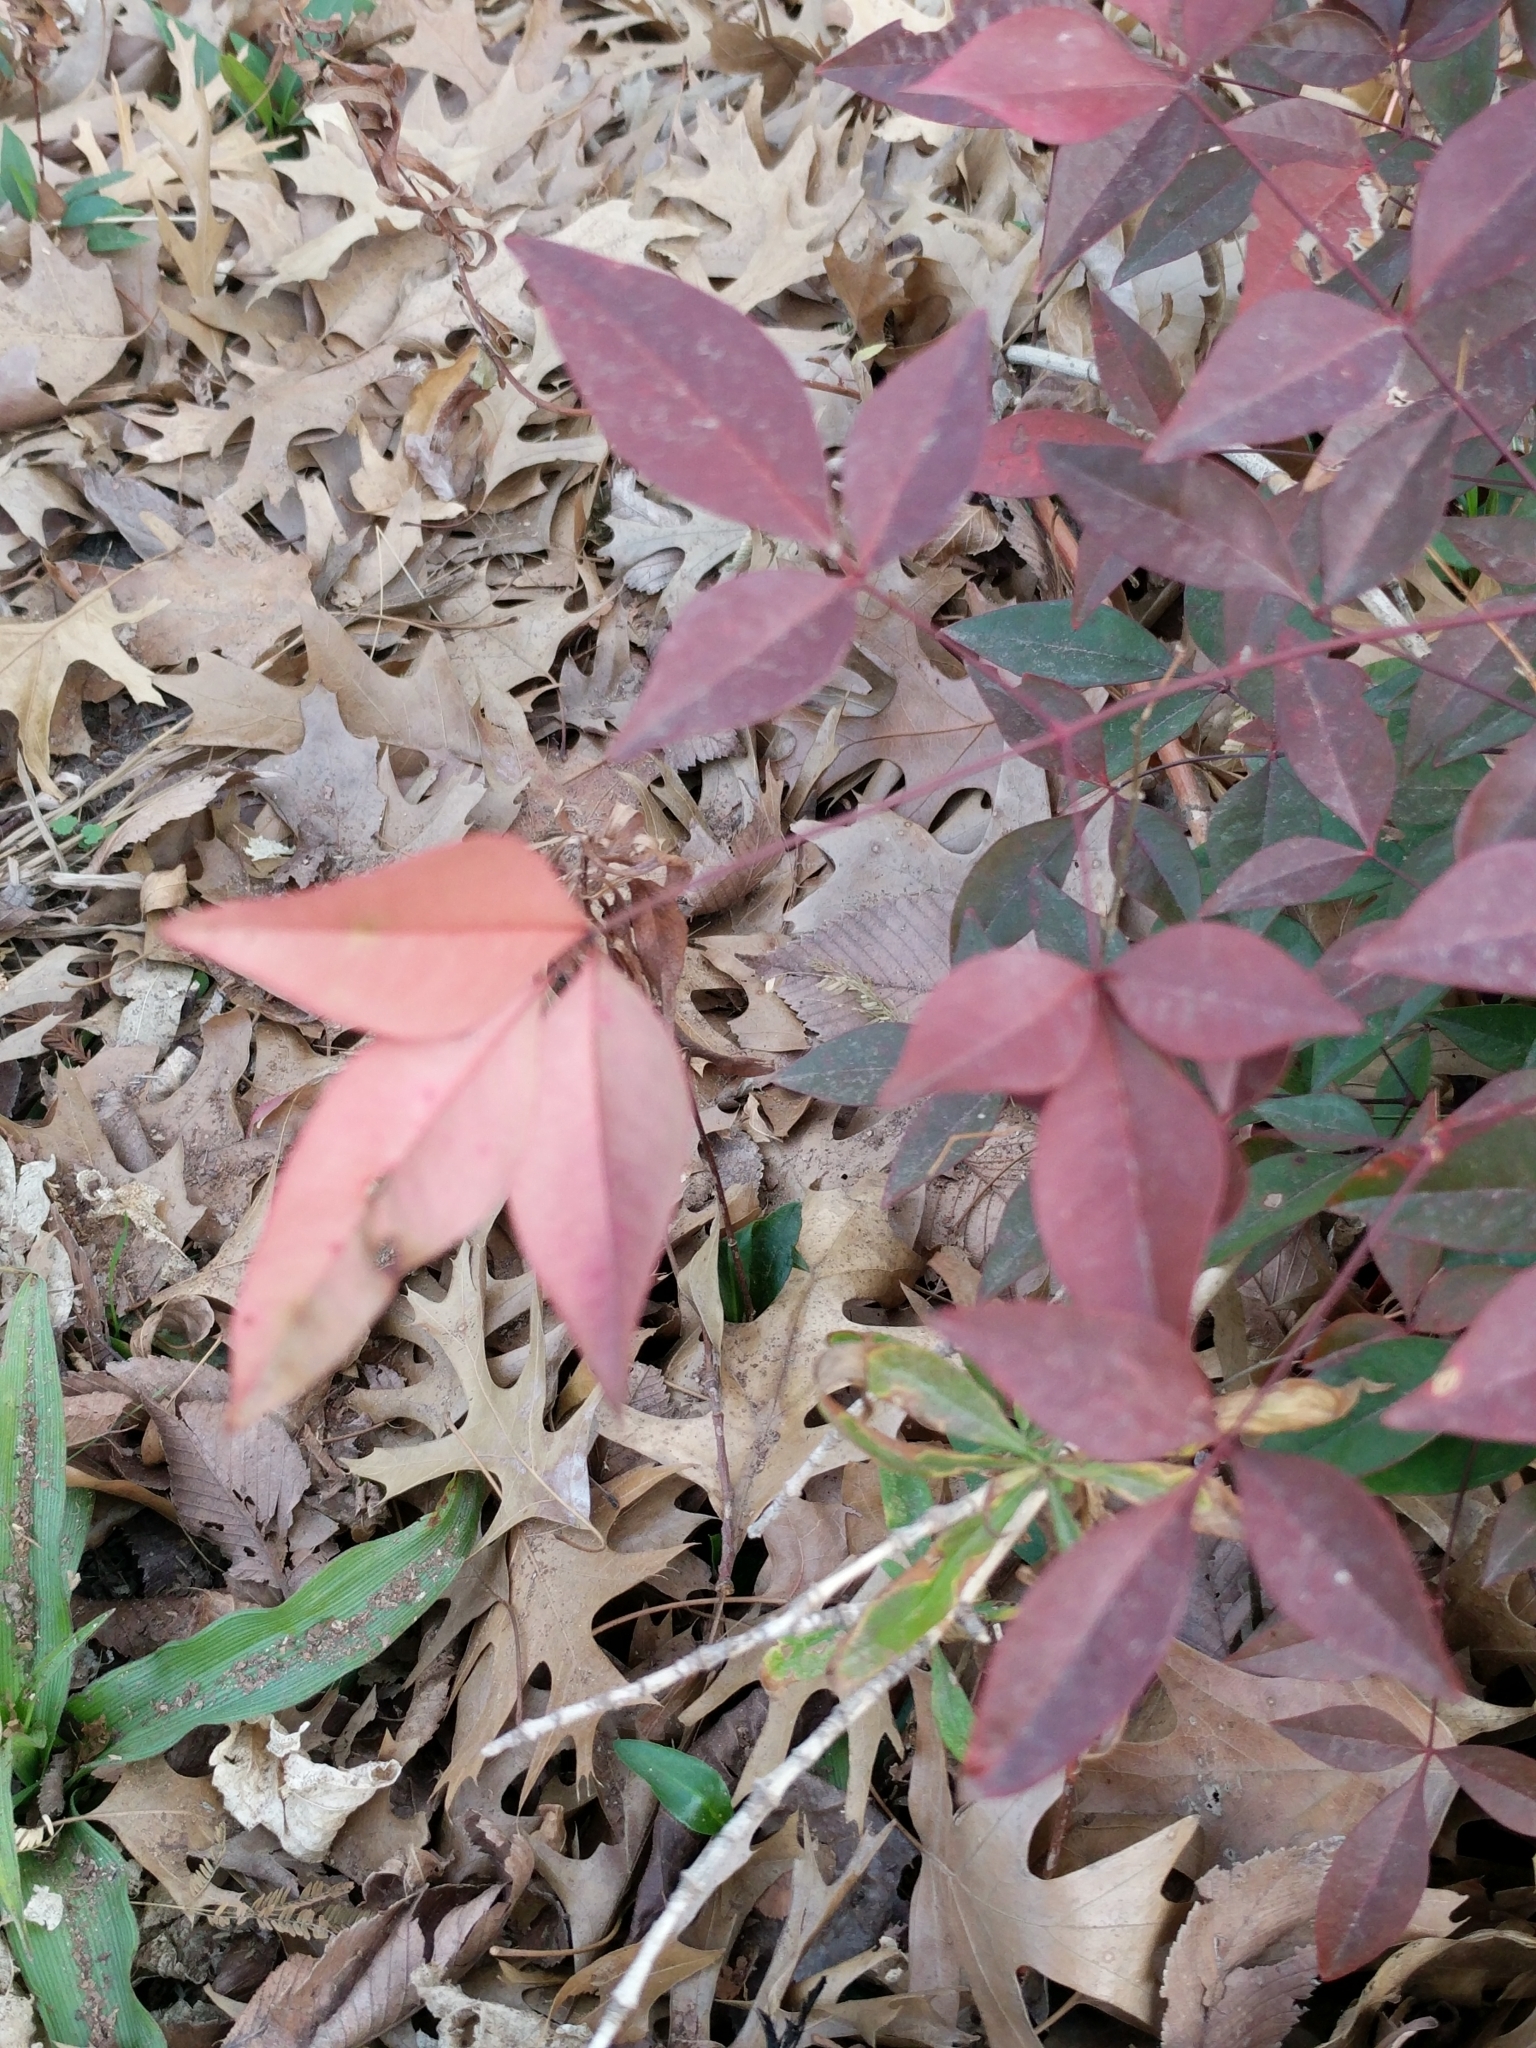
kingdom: Plantae
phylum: Tracheophyta
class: Magnoliopsida
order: Ranunculales
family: Berberidaceae
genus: Nandina
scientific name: Nandina domestica
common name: Sacred bamboo
